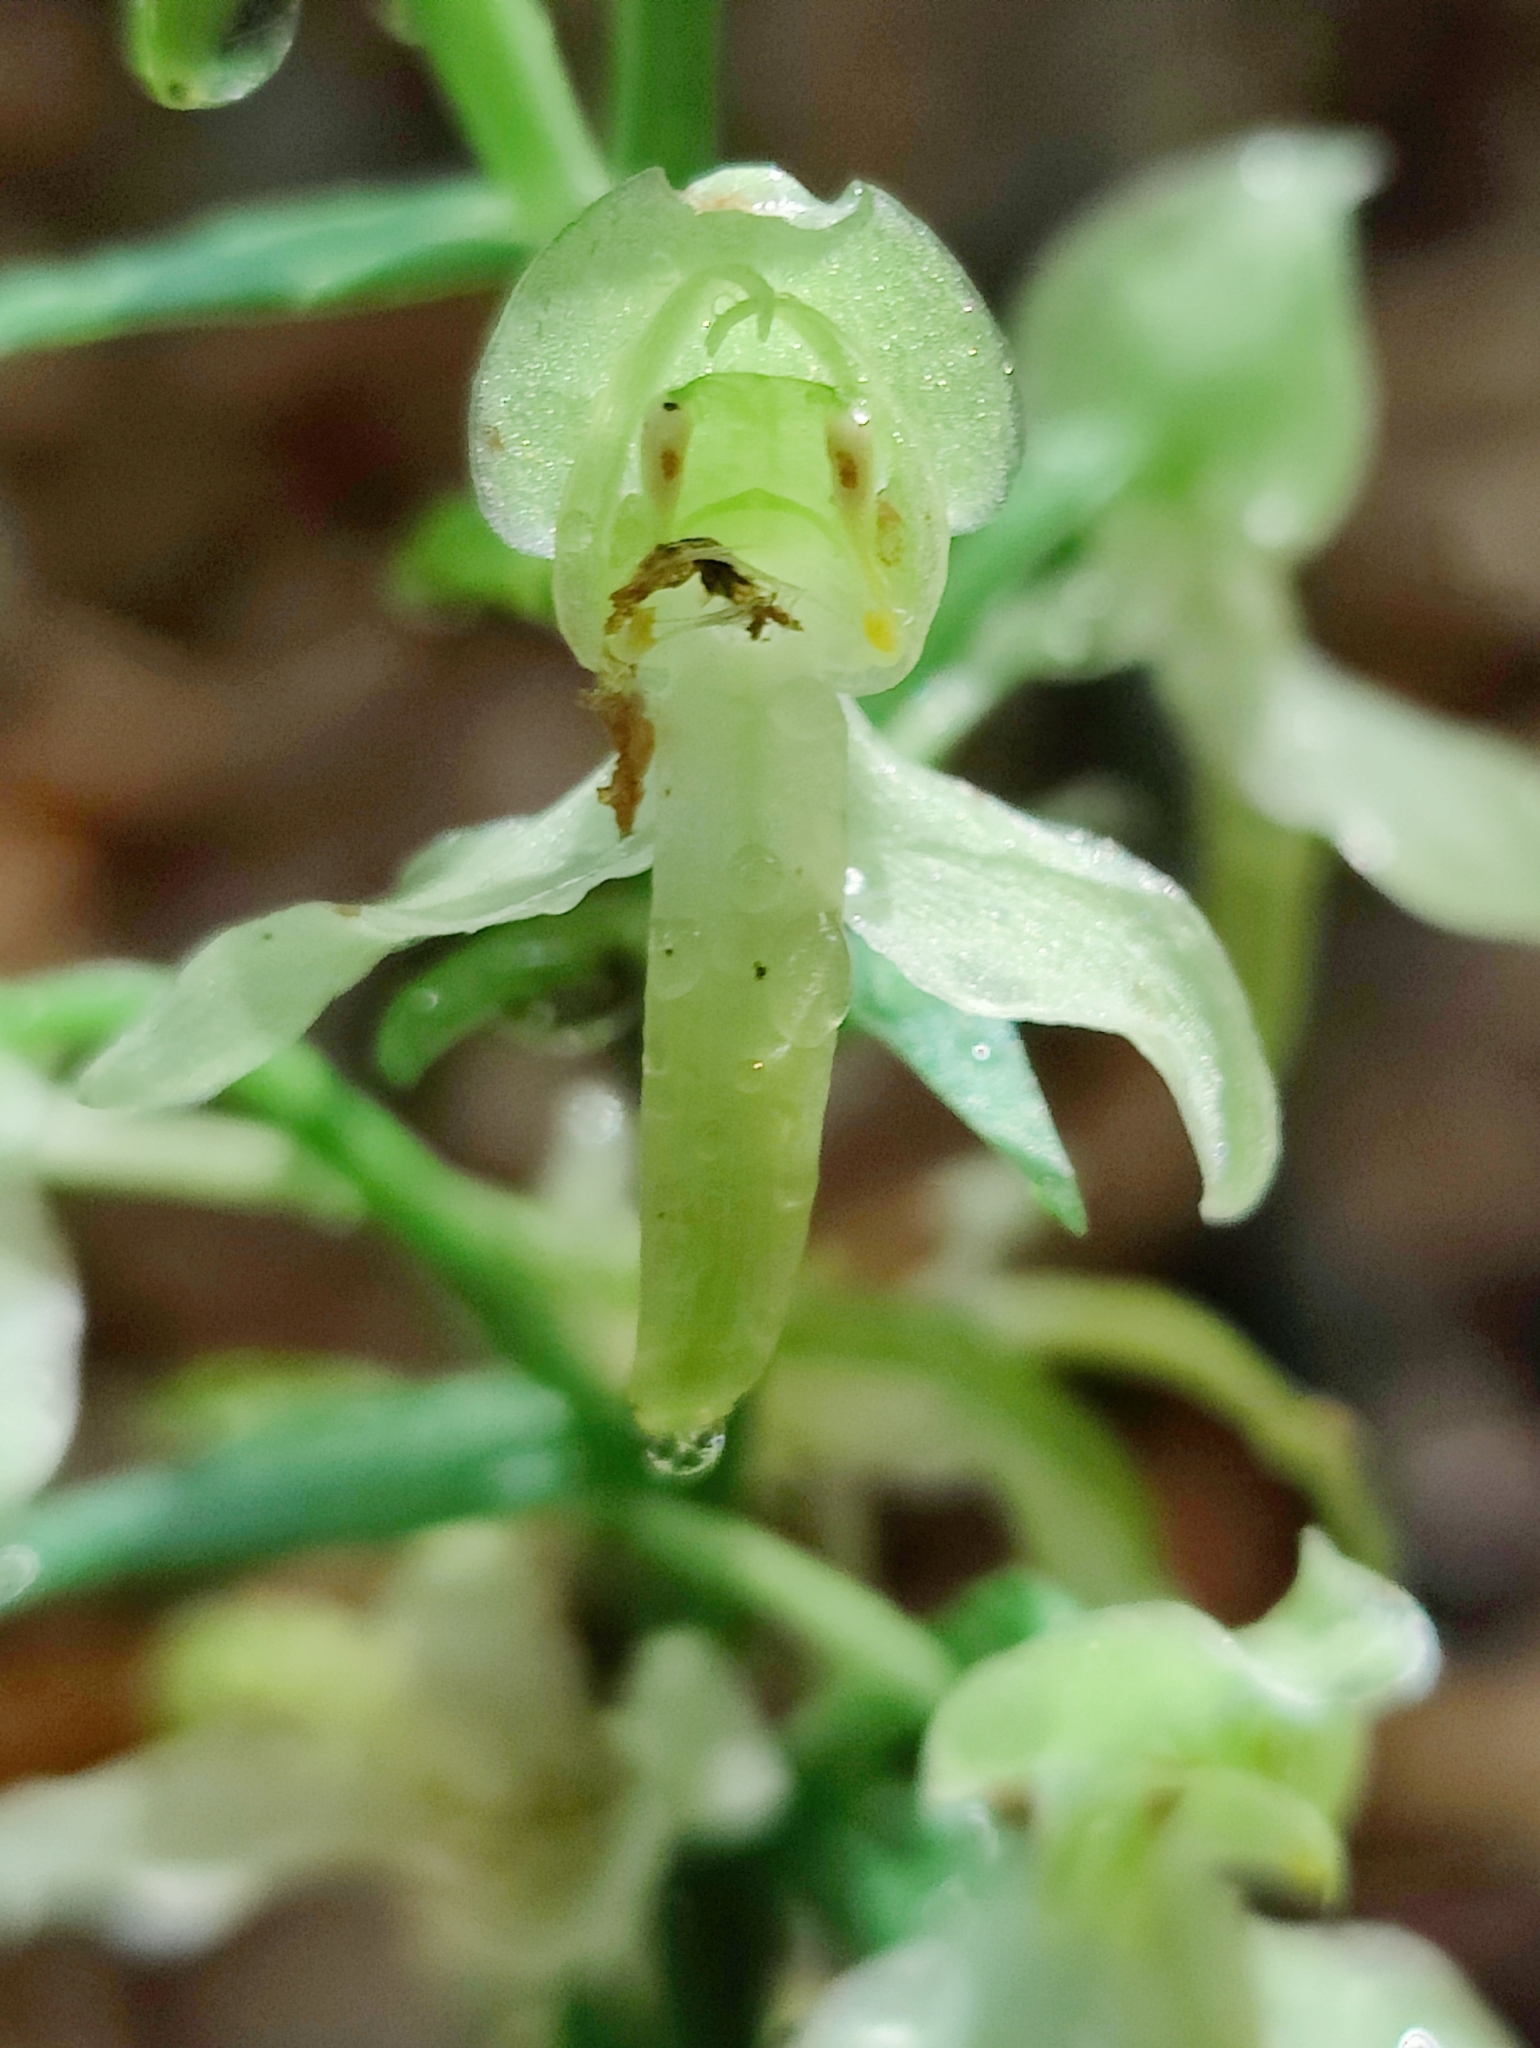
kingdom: Plantae
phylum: Tracheophyta
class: Liliopsida
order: Asparagales
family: Orchidaceae
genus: Platanthera
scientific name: Platanthera chlorantha
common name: Greater butterfly-orchid
